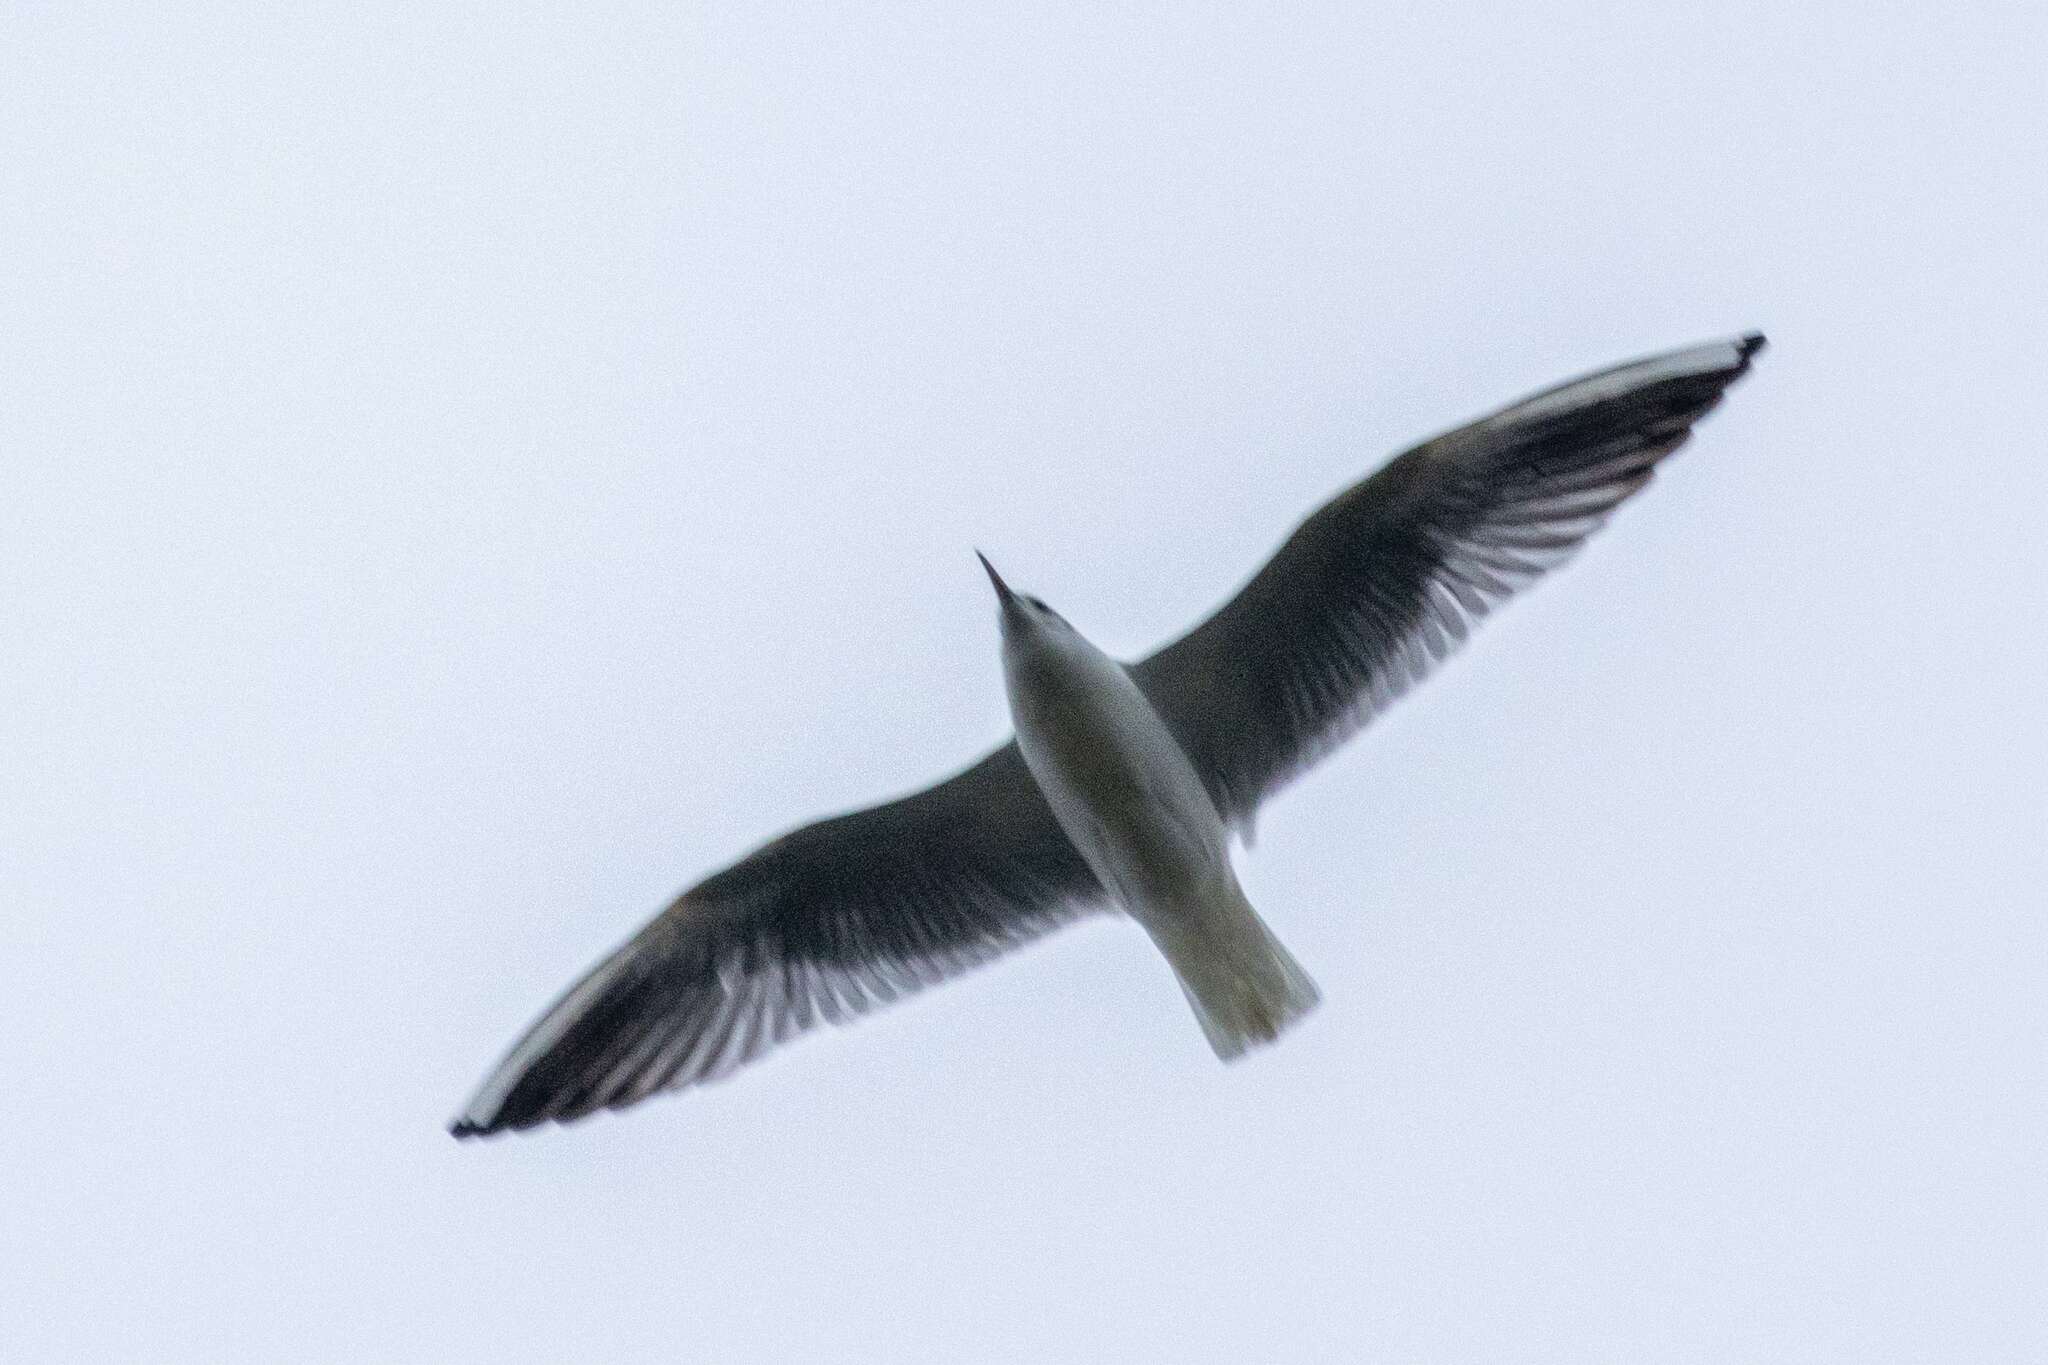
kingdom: Animalia
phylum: Chordata
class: Aves
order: Charadriiformes
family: Laridae
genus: Chroicocephalus
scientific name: Chroicocephalus ridibundus
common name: Black-headed gull
